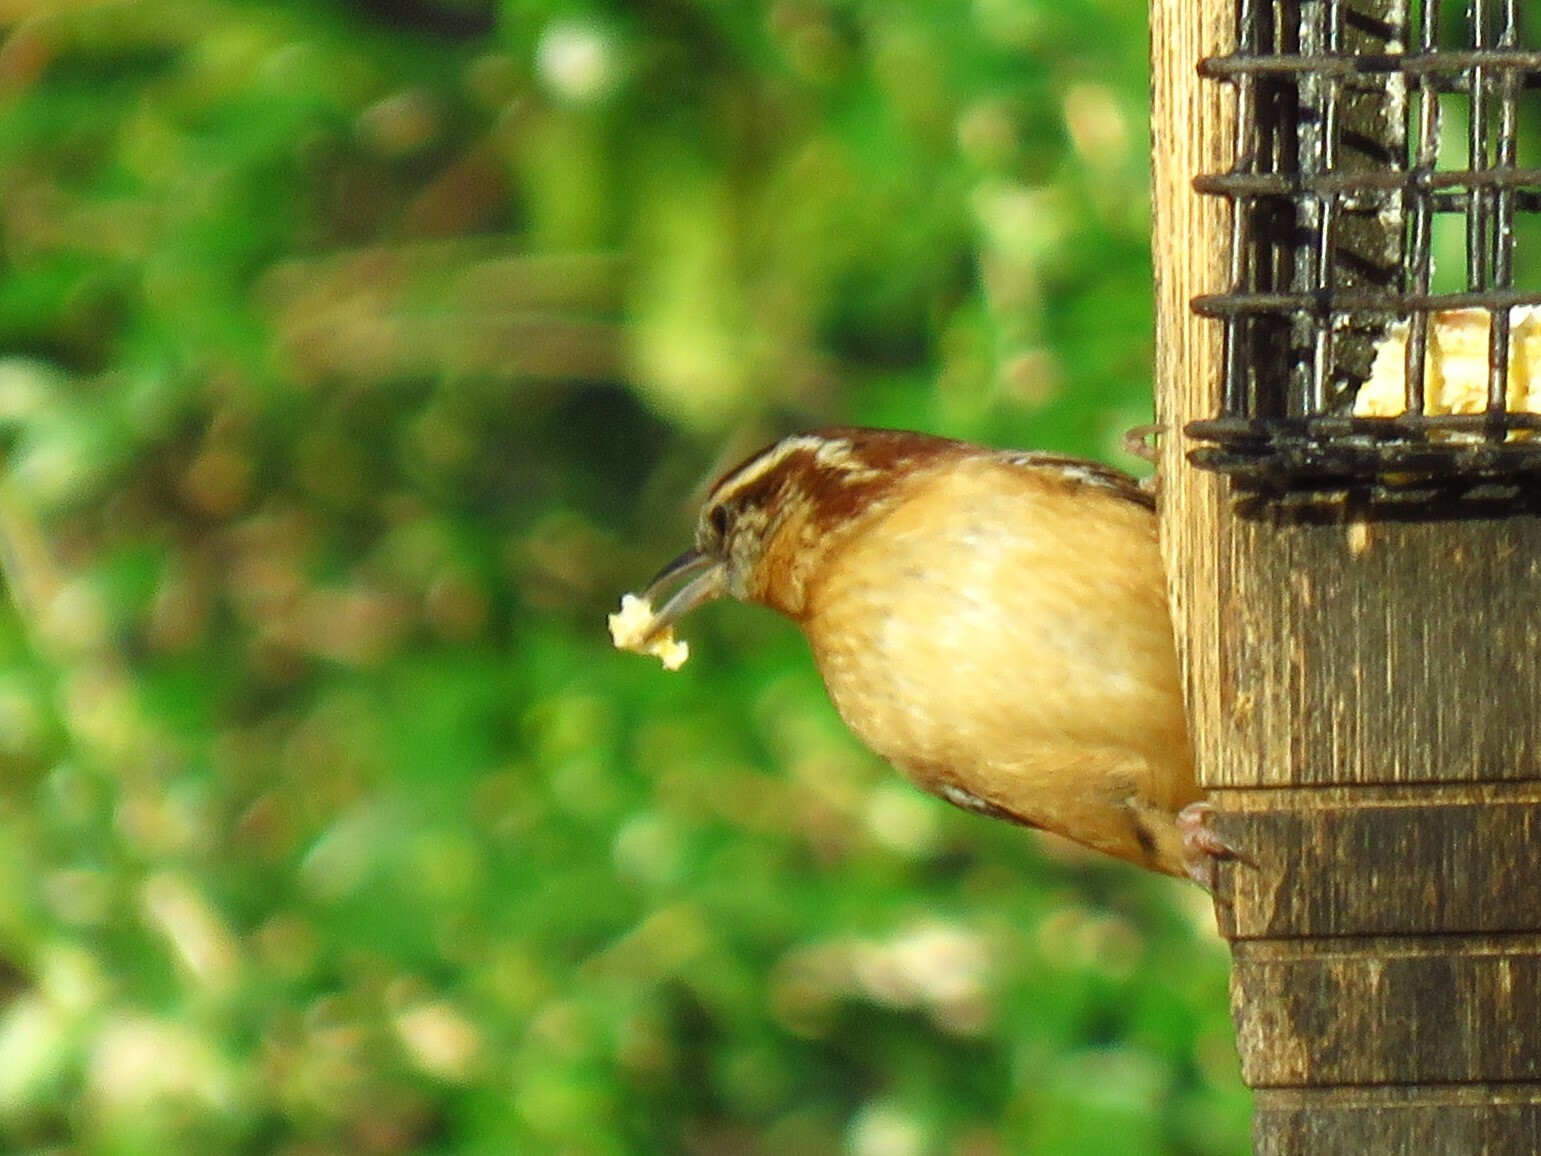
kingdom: Animalia
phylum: Chordata
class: Aves
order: Passeriformes
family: Troglodytidae
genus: Thryothorus
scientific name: Thryothorus ludovicianus
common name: Carolina wren
